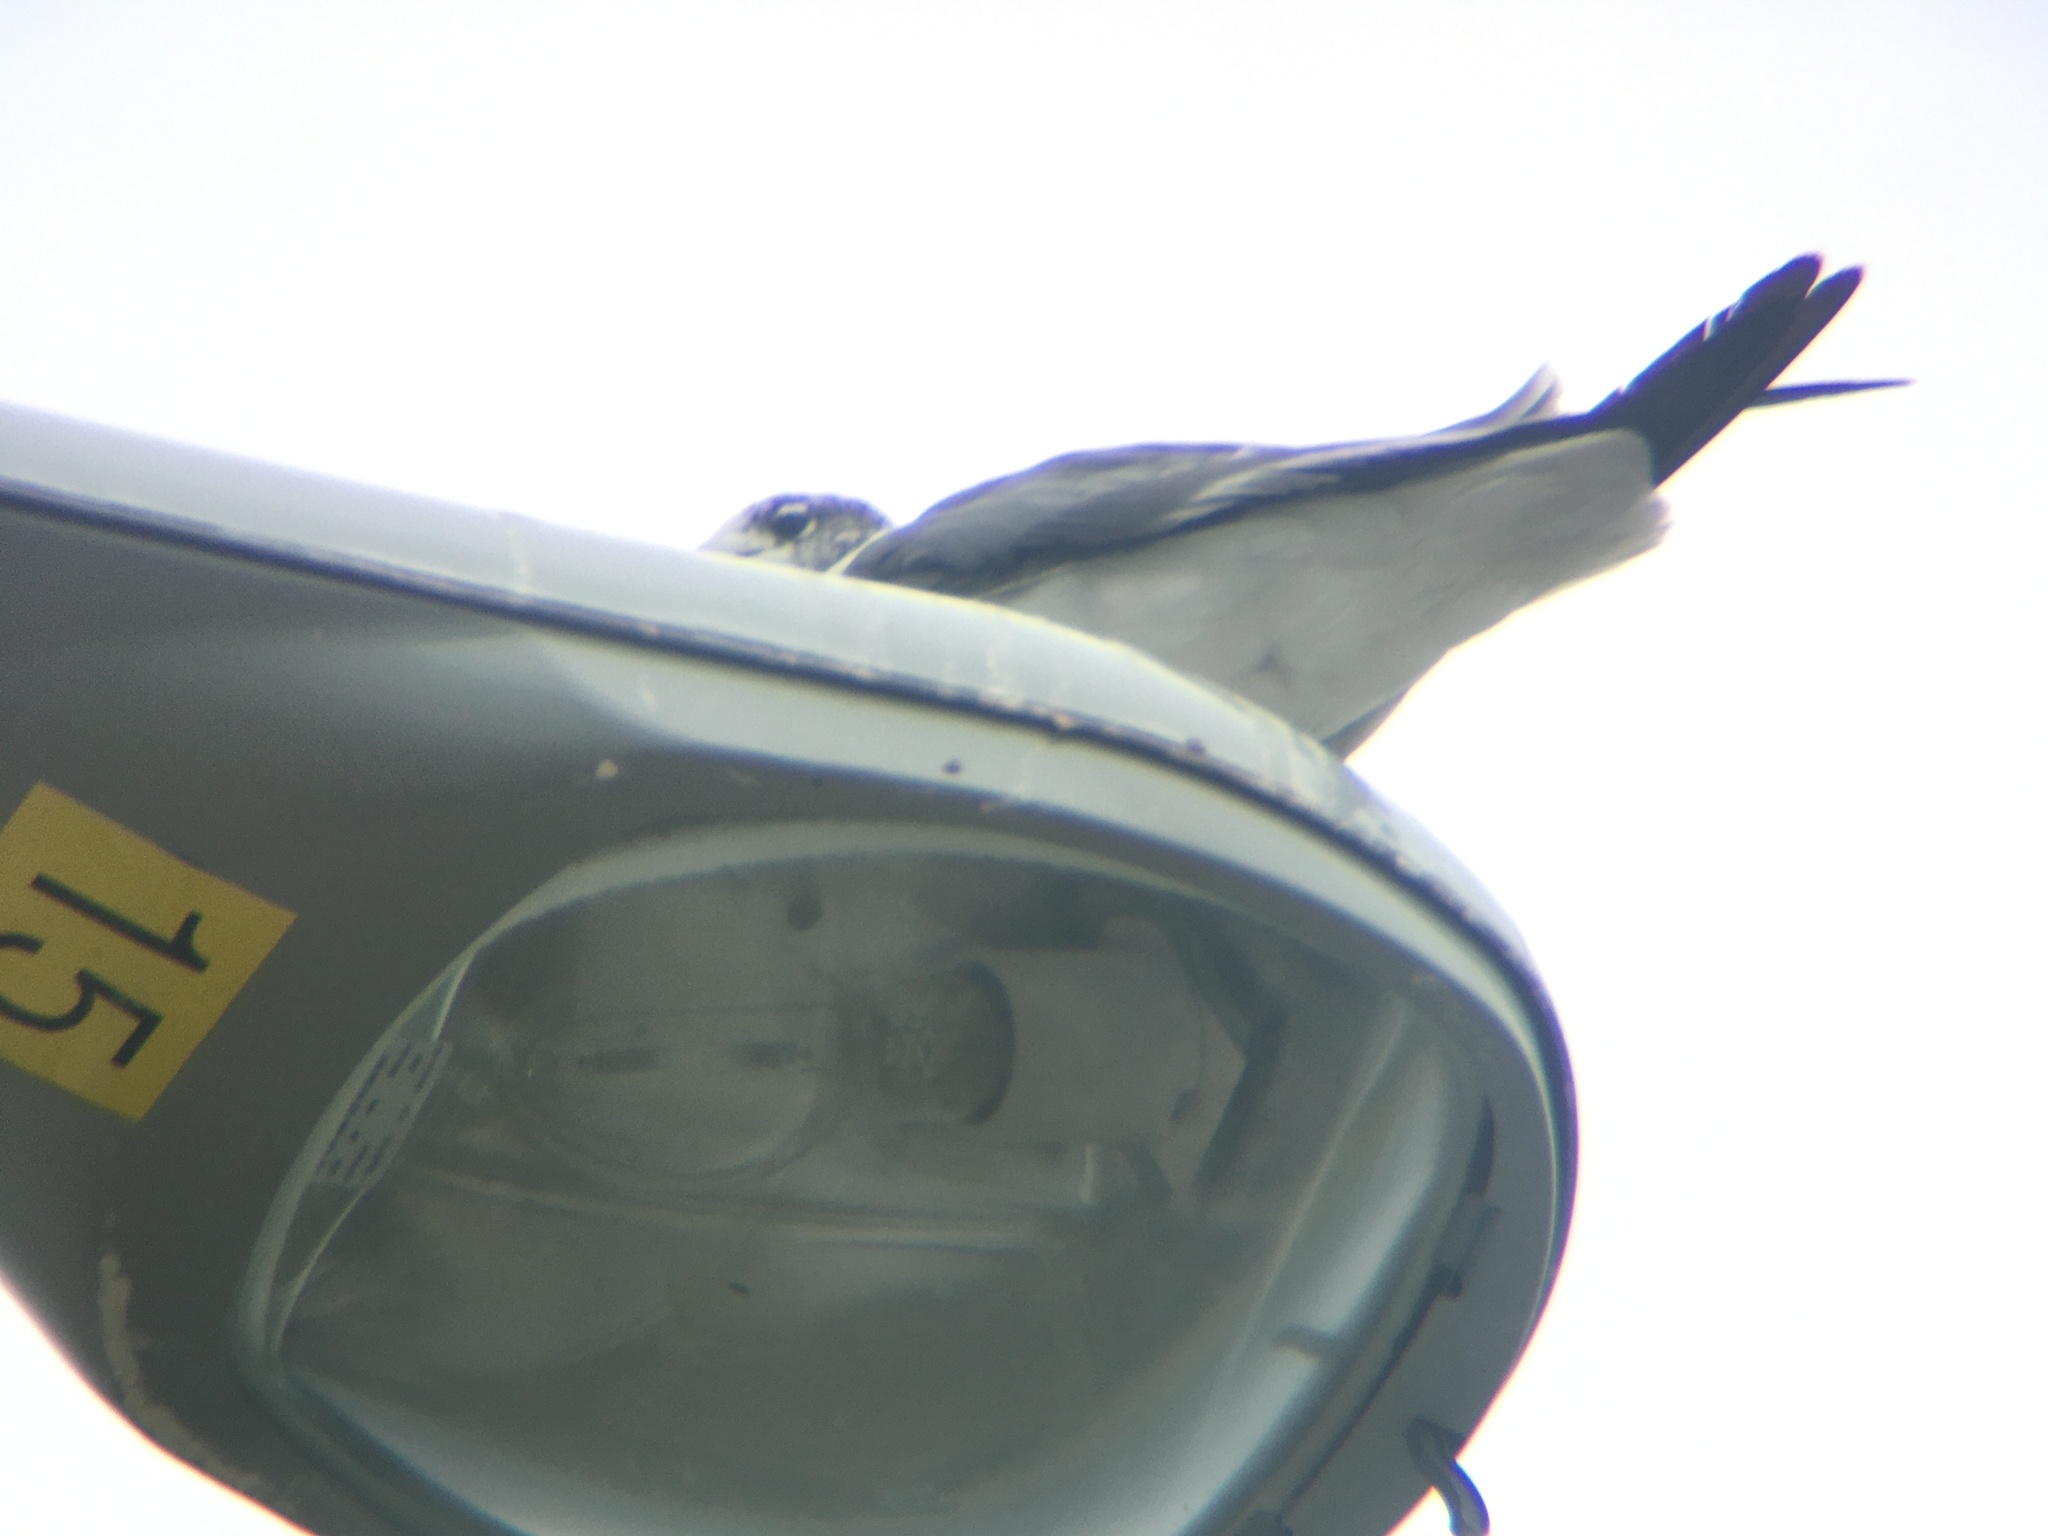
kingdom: Animalia
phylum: Chordata
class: Aves
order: Charadriiformes
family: Laridae
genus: Leucophaeus
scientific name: Leucophaeus atricilla
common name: Laughing gull
